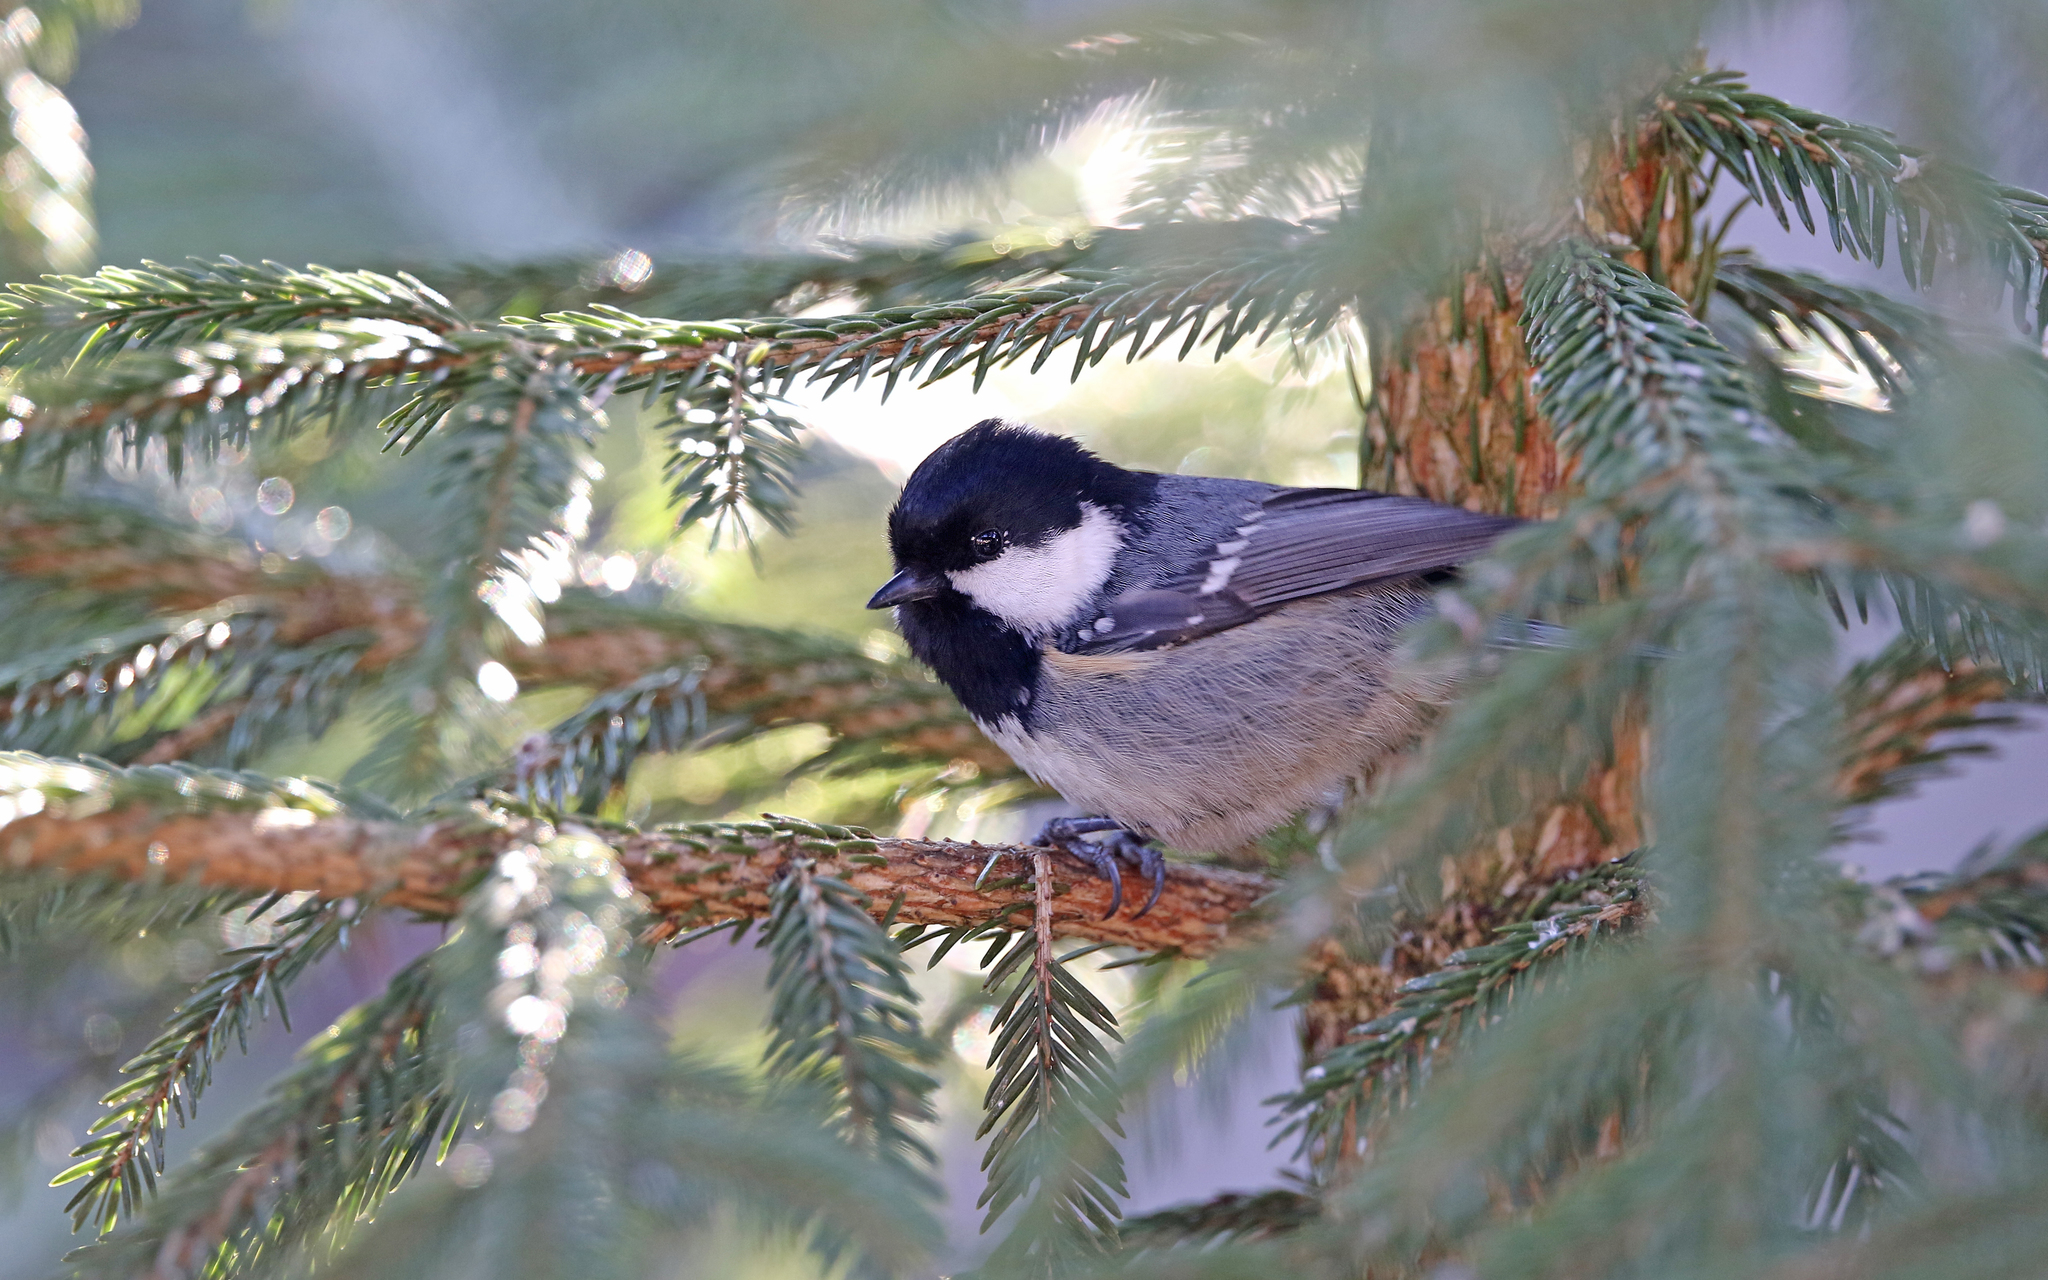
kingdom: Animalia
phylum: Chordata
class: Aves
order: Passeriformes
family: Paridae
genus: Periparus
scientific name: Periparus ater
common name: Coal tit
